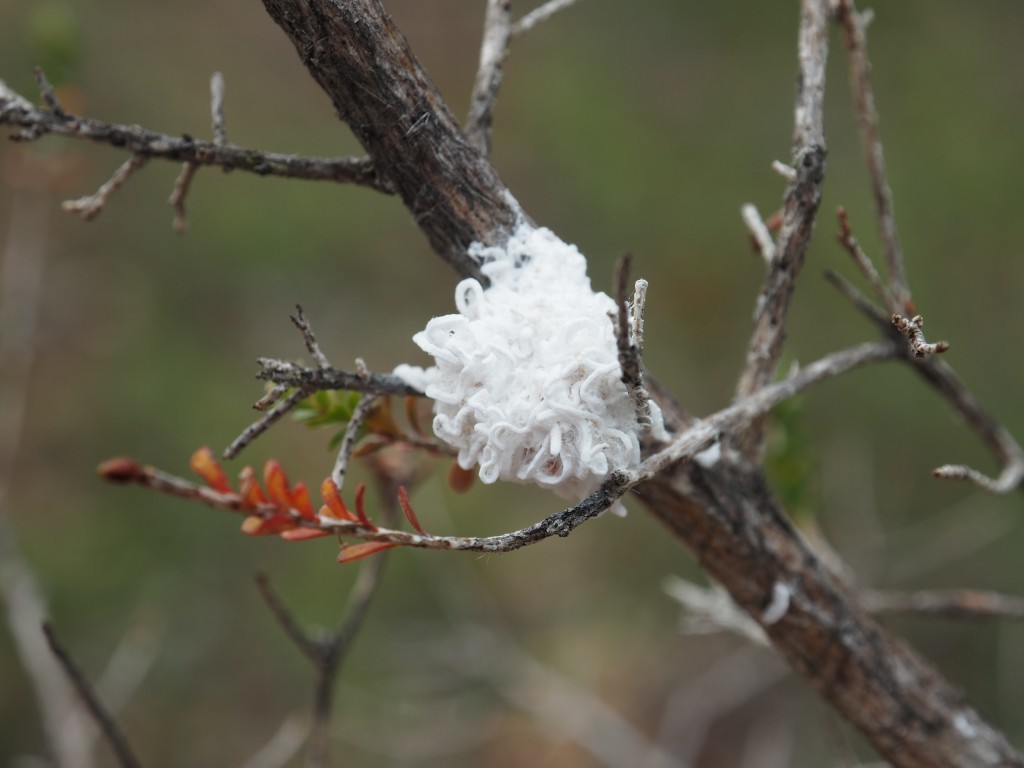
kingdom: Animalia
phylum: Arthropoda
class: Insecta
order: Hemiptera
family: Asterolecaniidae
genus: Callococcus
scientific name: Callococcus
